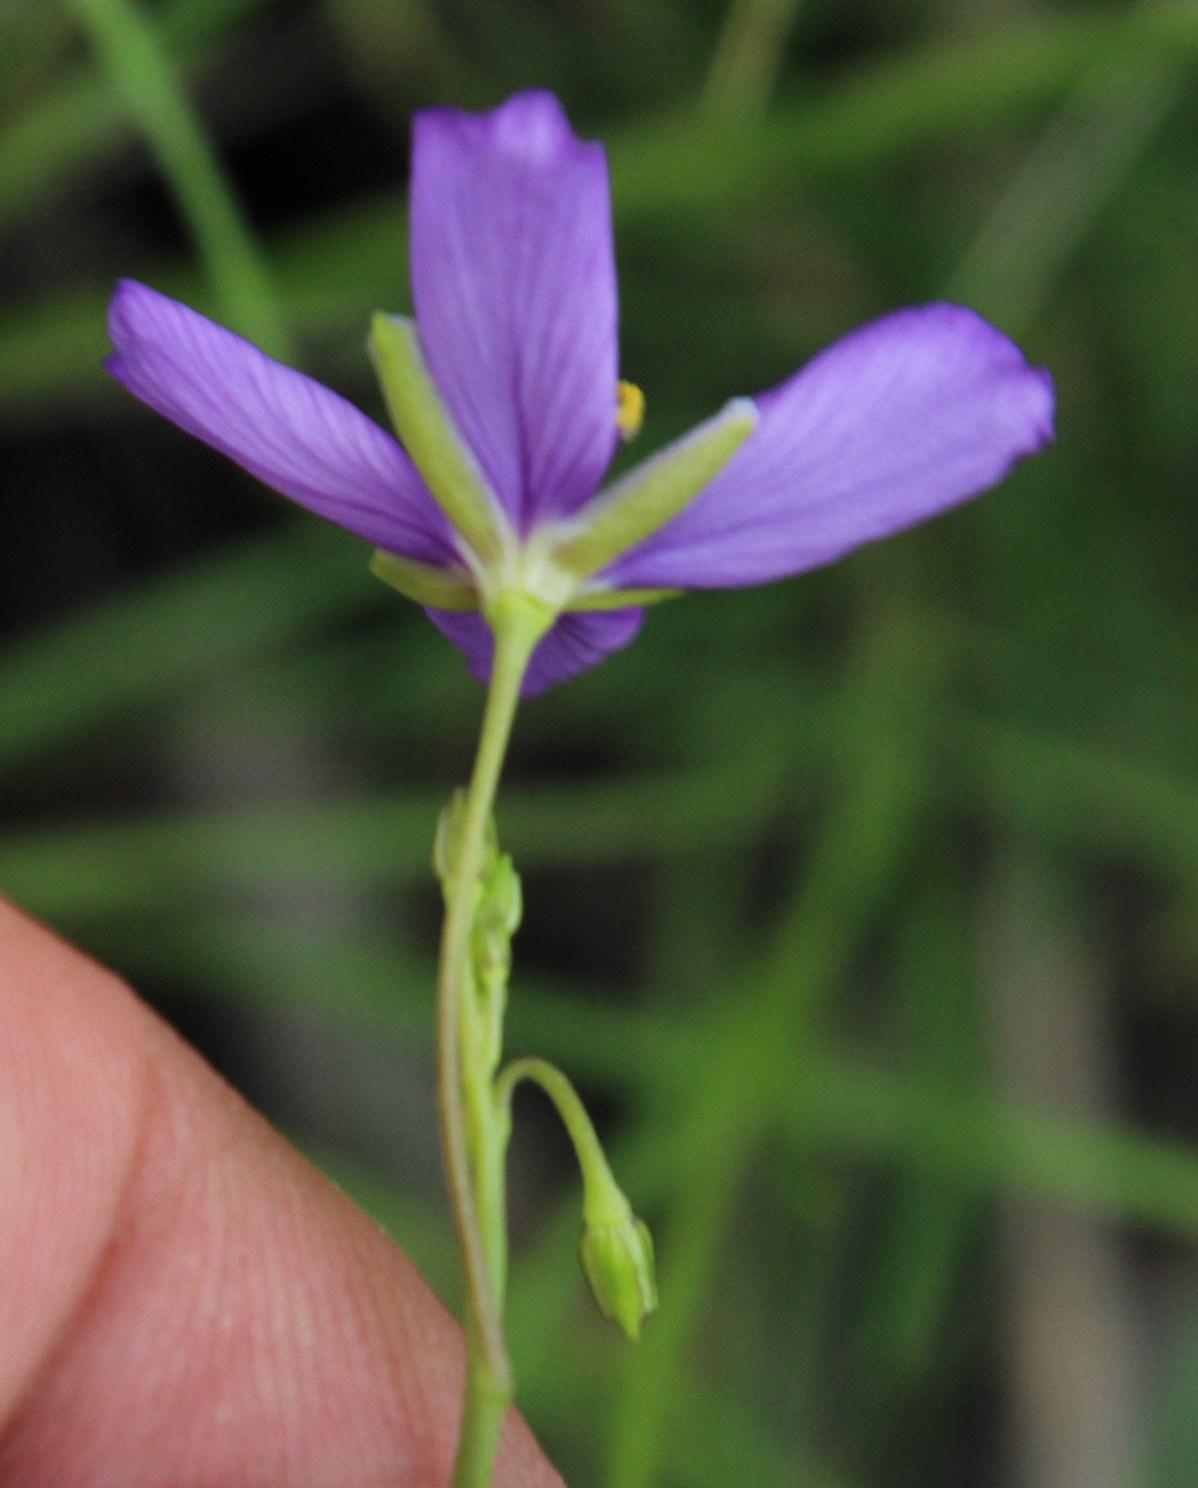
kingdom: Plantae
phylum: Tracheophyta
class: Magnoliopsida
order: Brassicales
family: Brassicaceae
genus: Heliophila
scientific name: Heliophila suavissima
